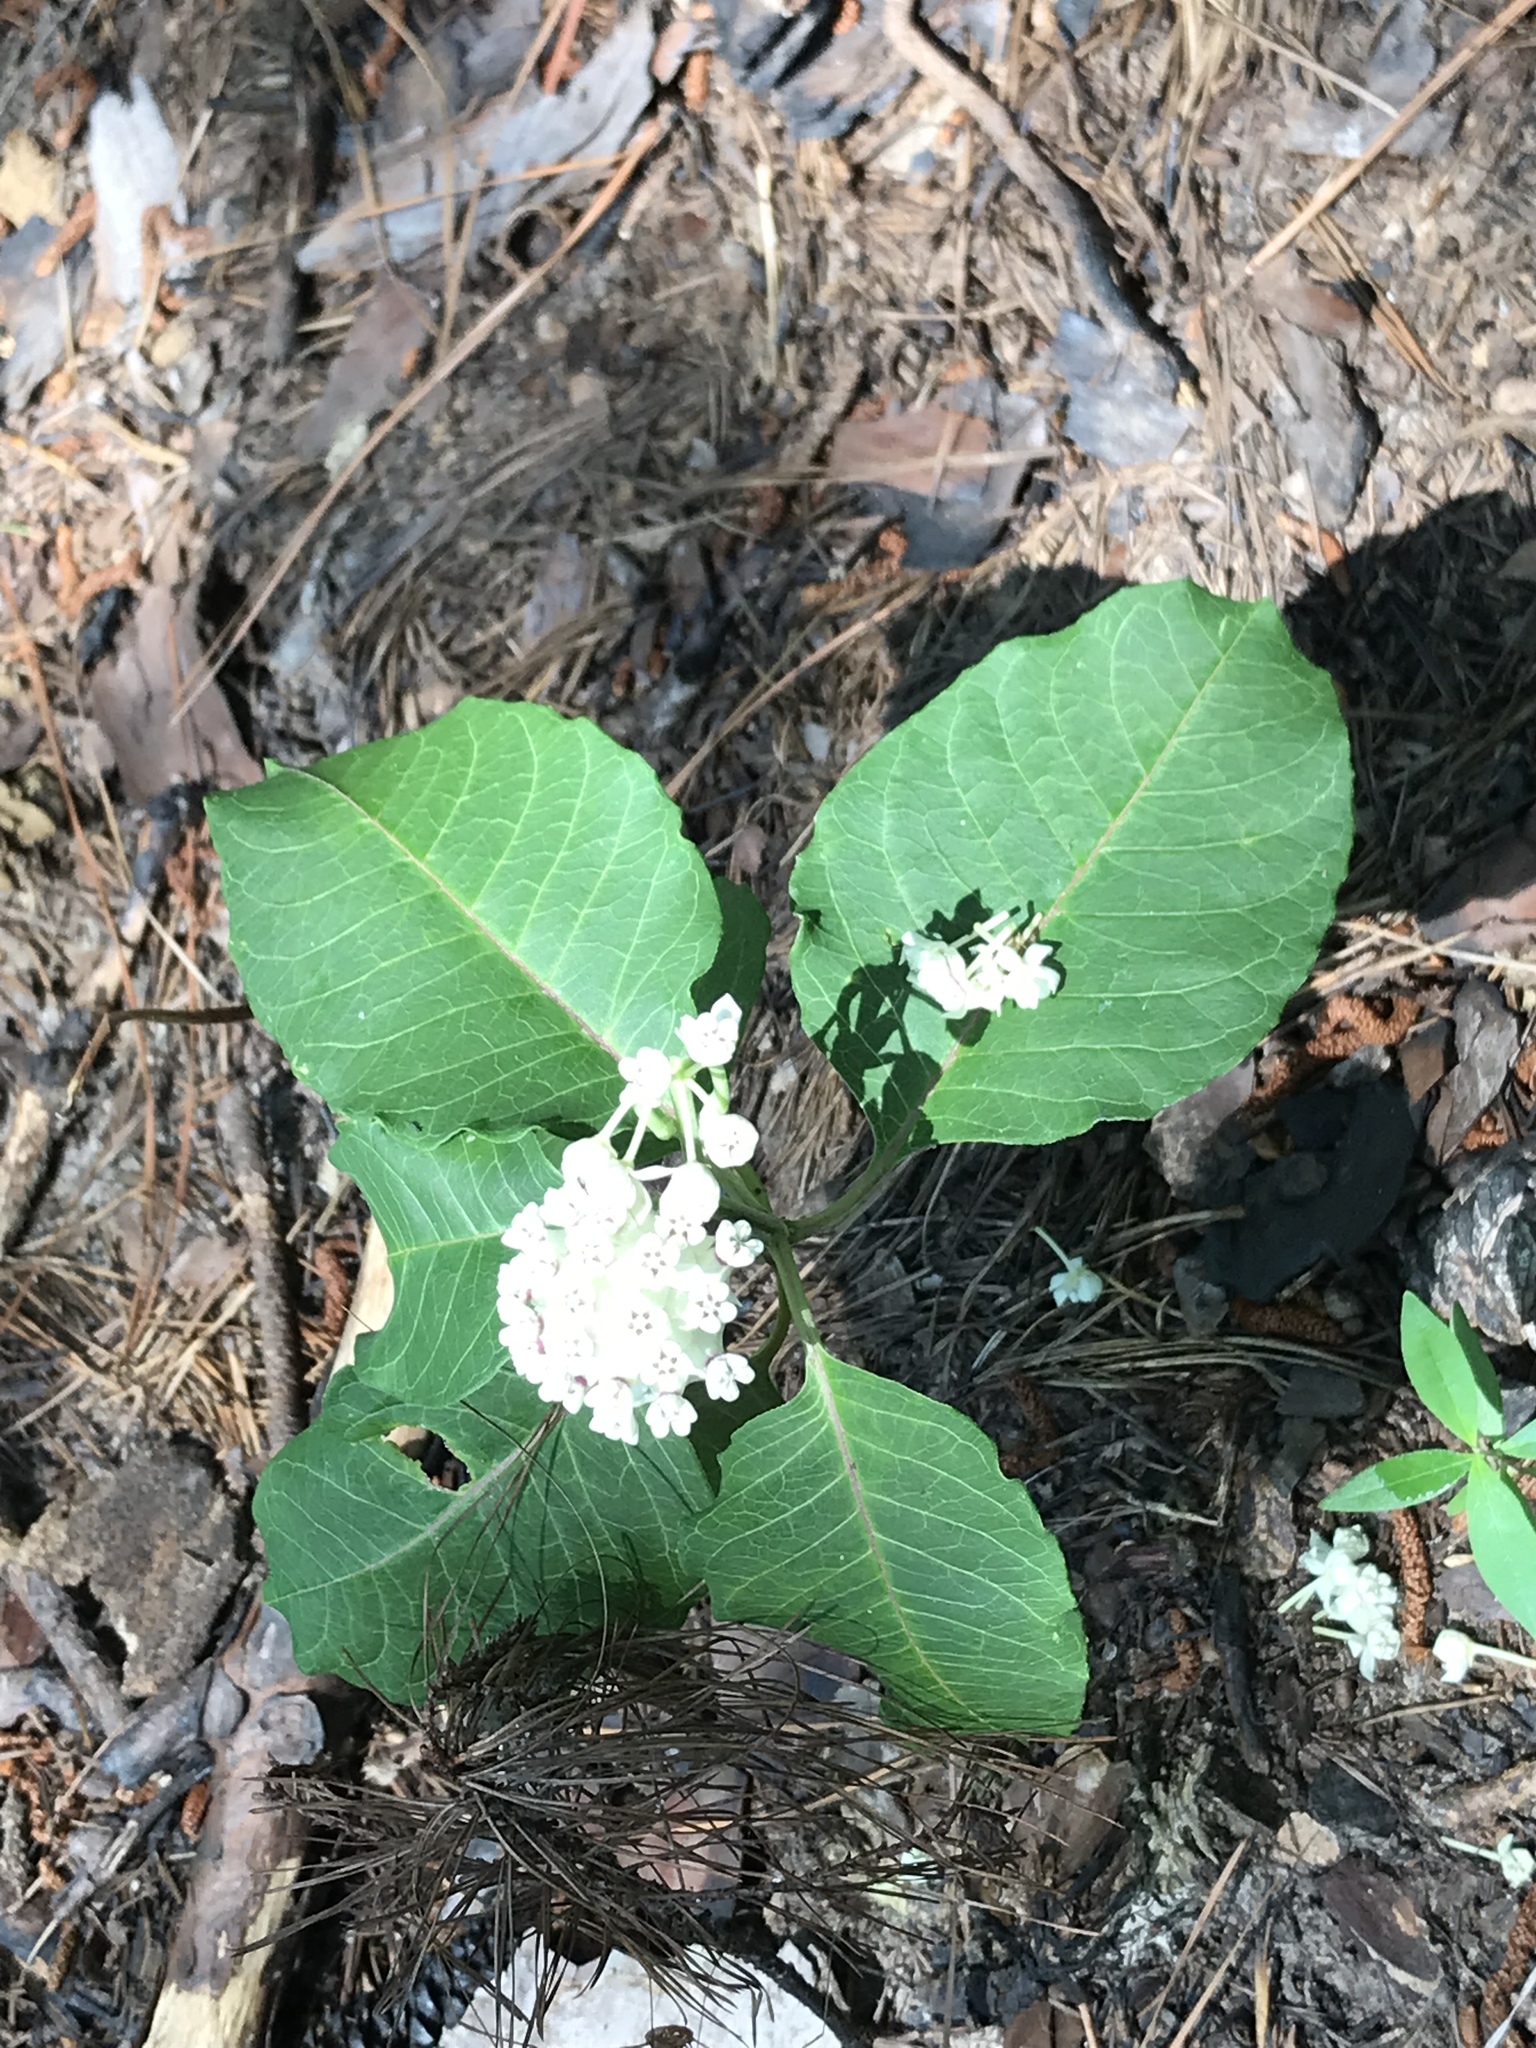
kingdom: Plantae
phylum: Tracheophyta
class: Magnoliopsida
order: Gentianales
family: Apocynaceae
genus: Asclepias
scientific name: Asclepias variegata
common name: Variegated milkweed
